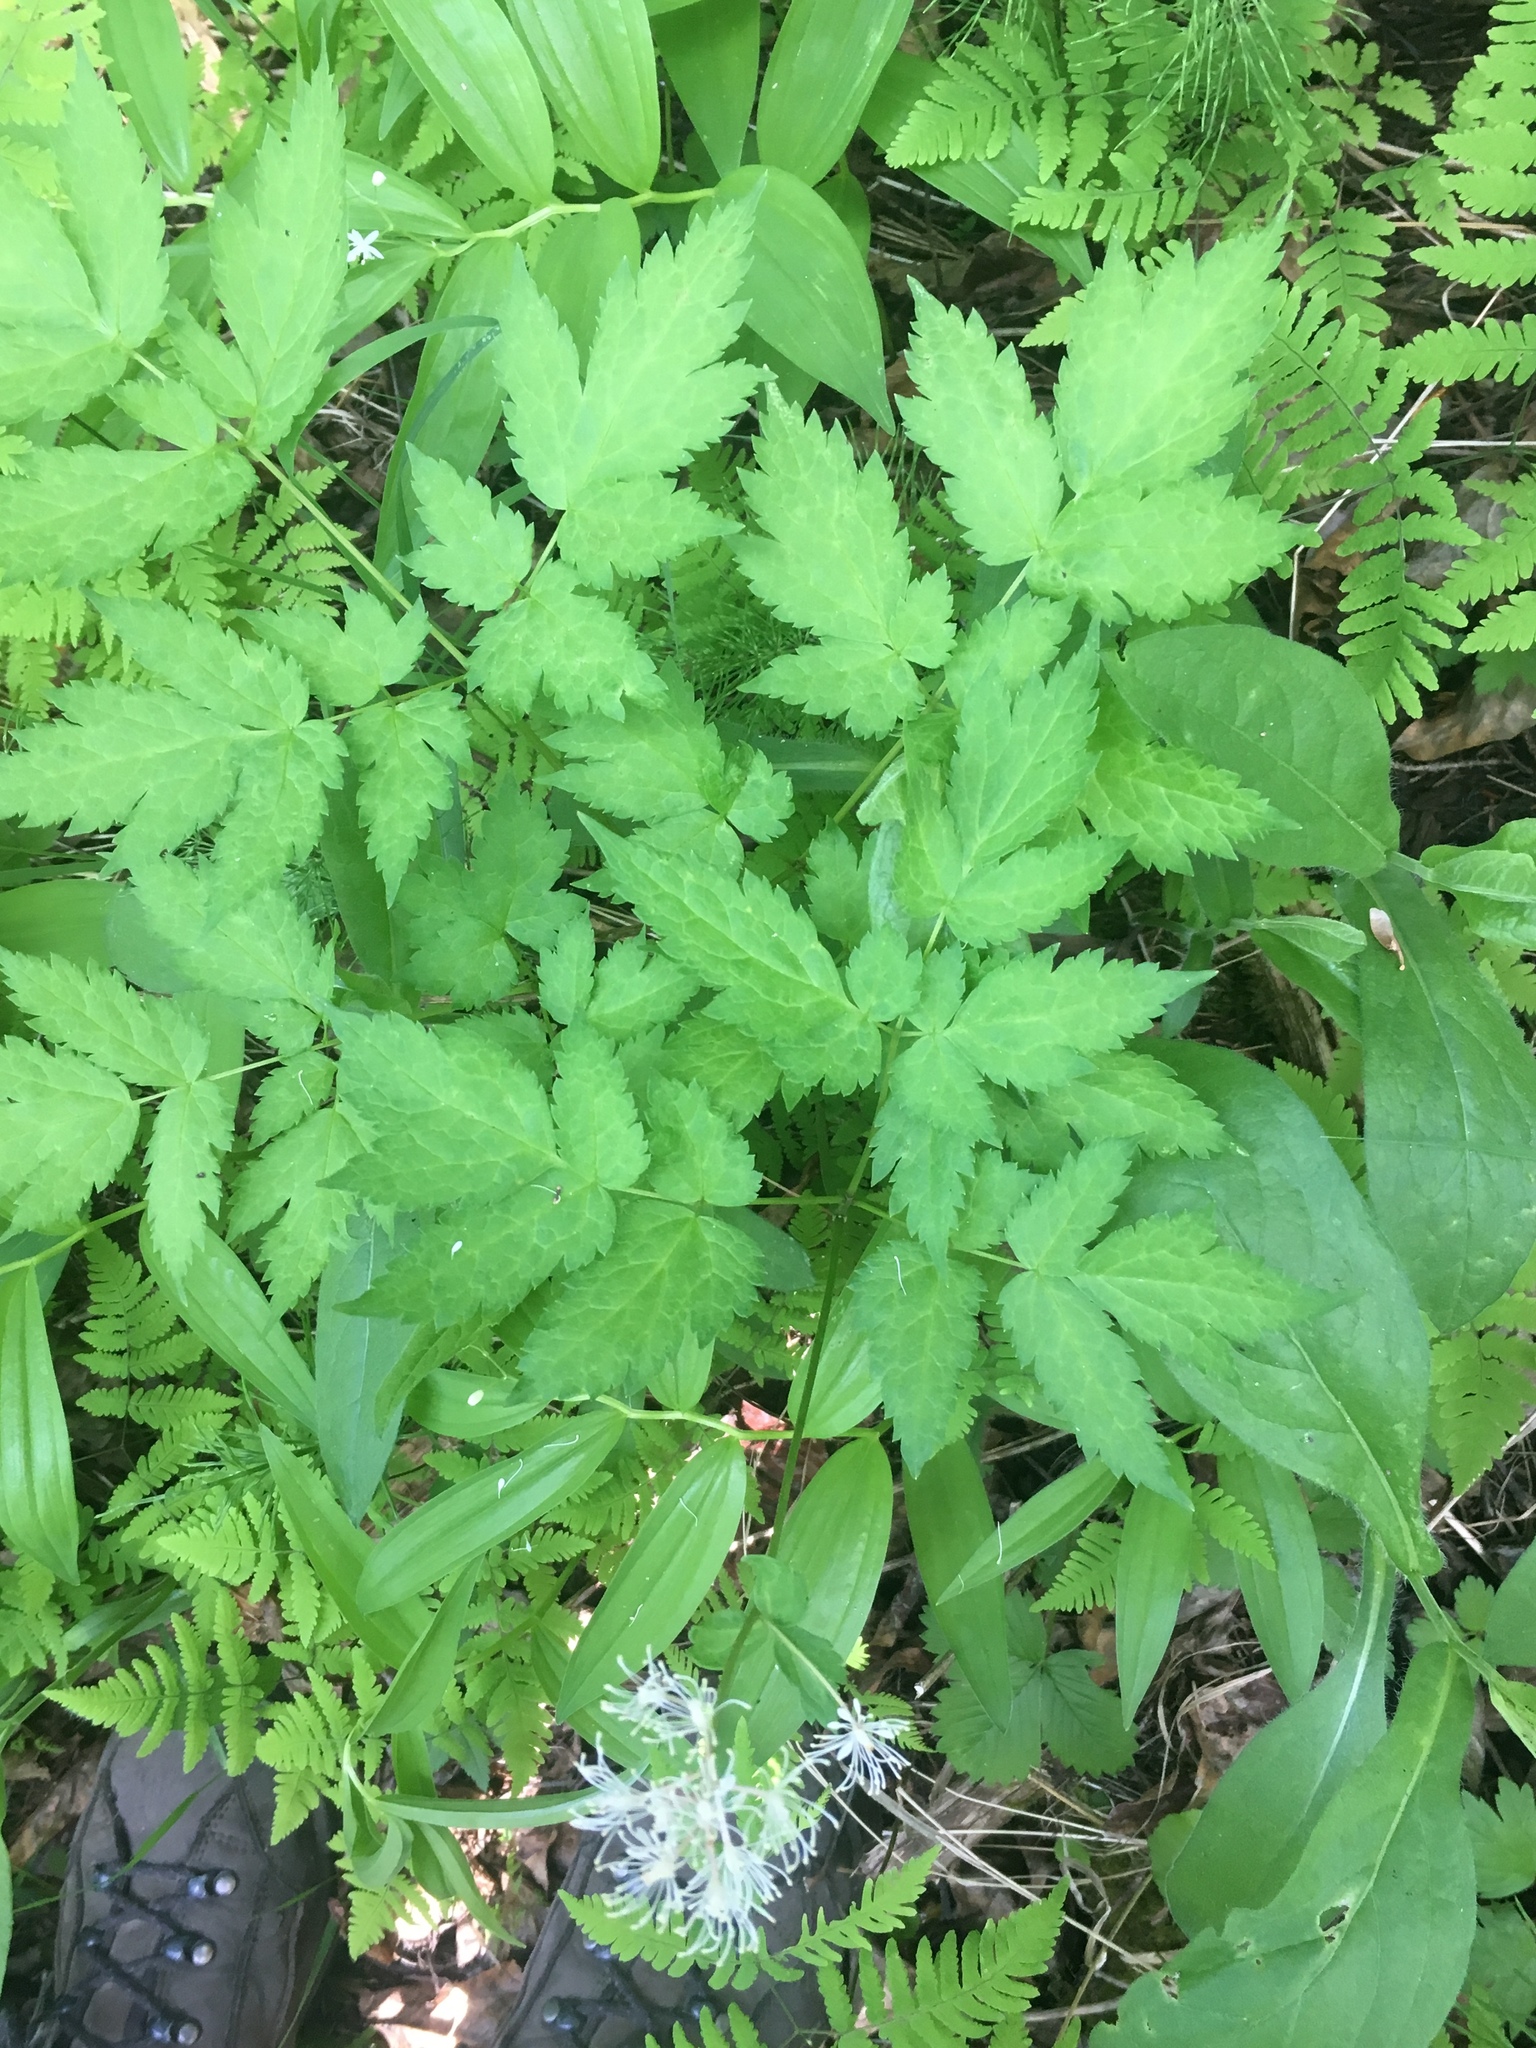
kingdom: Plantae
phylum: Tracheophyta
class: Magnoliopsida
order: Ranunculales
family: Ranunculaceae
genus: Actaea
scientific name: Actaea rubra
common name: Red baneberry
